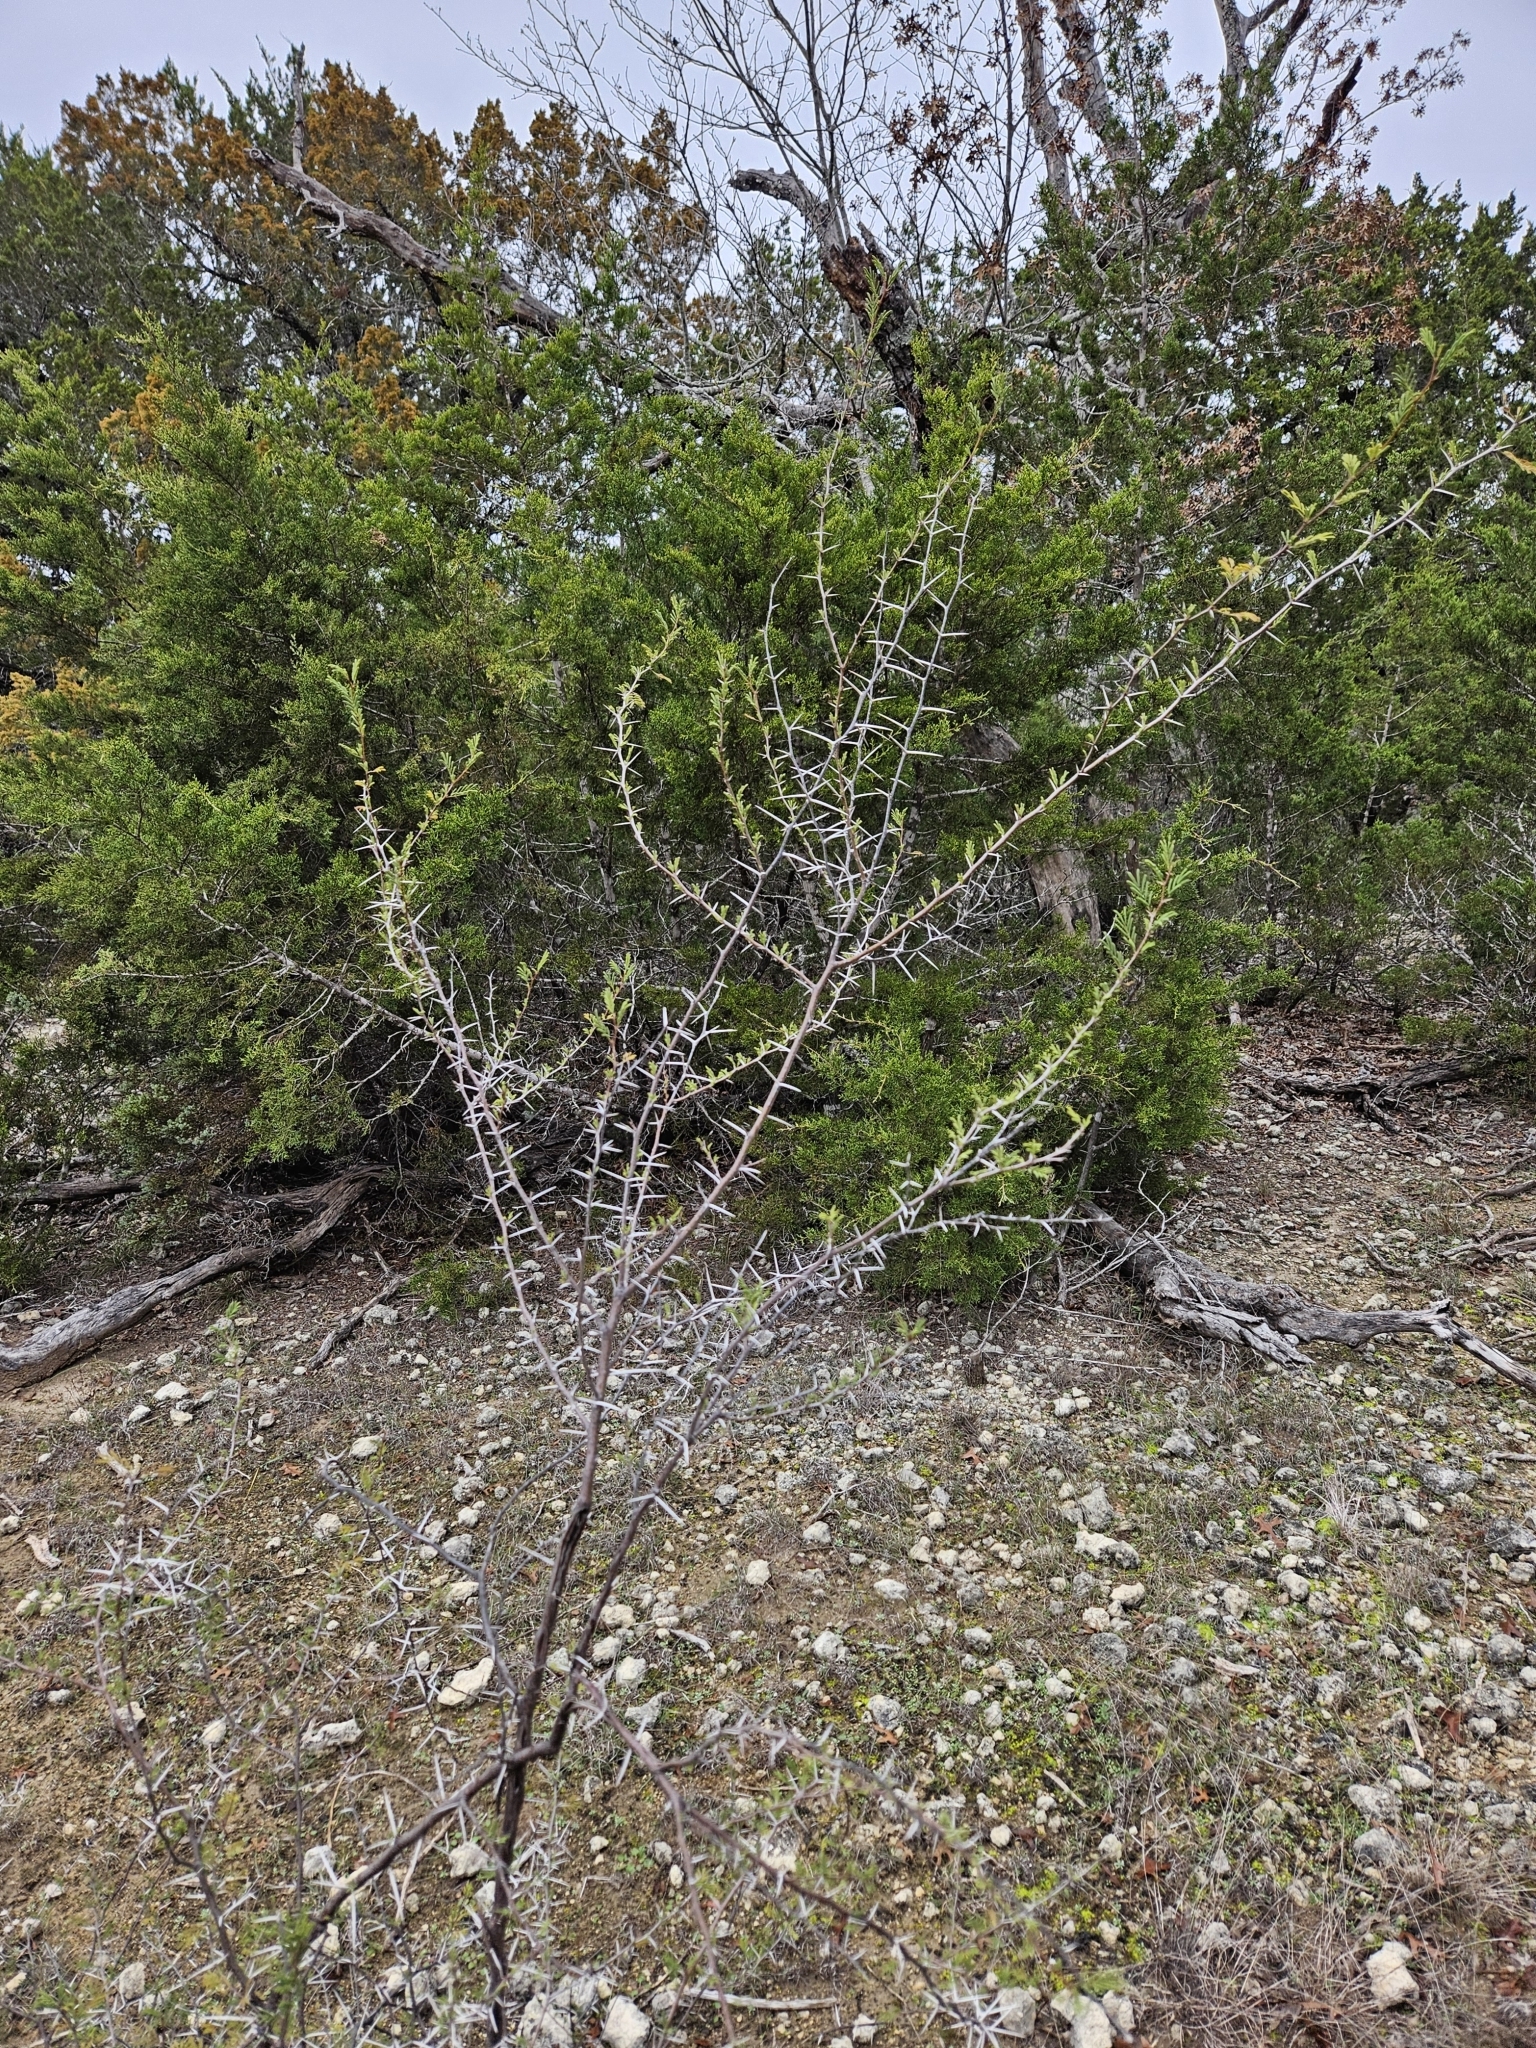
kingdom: Plantae
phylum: Tracheophyta
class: Magnoliopsida
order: Fabales
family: Fabaceae
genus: Vachellia
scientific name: Vachellia farnesiana
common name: Sweet acacia
